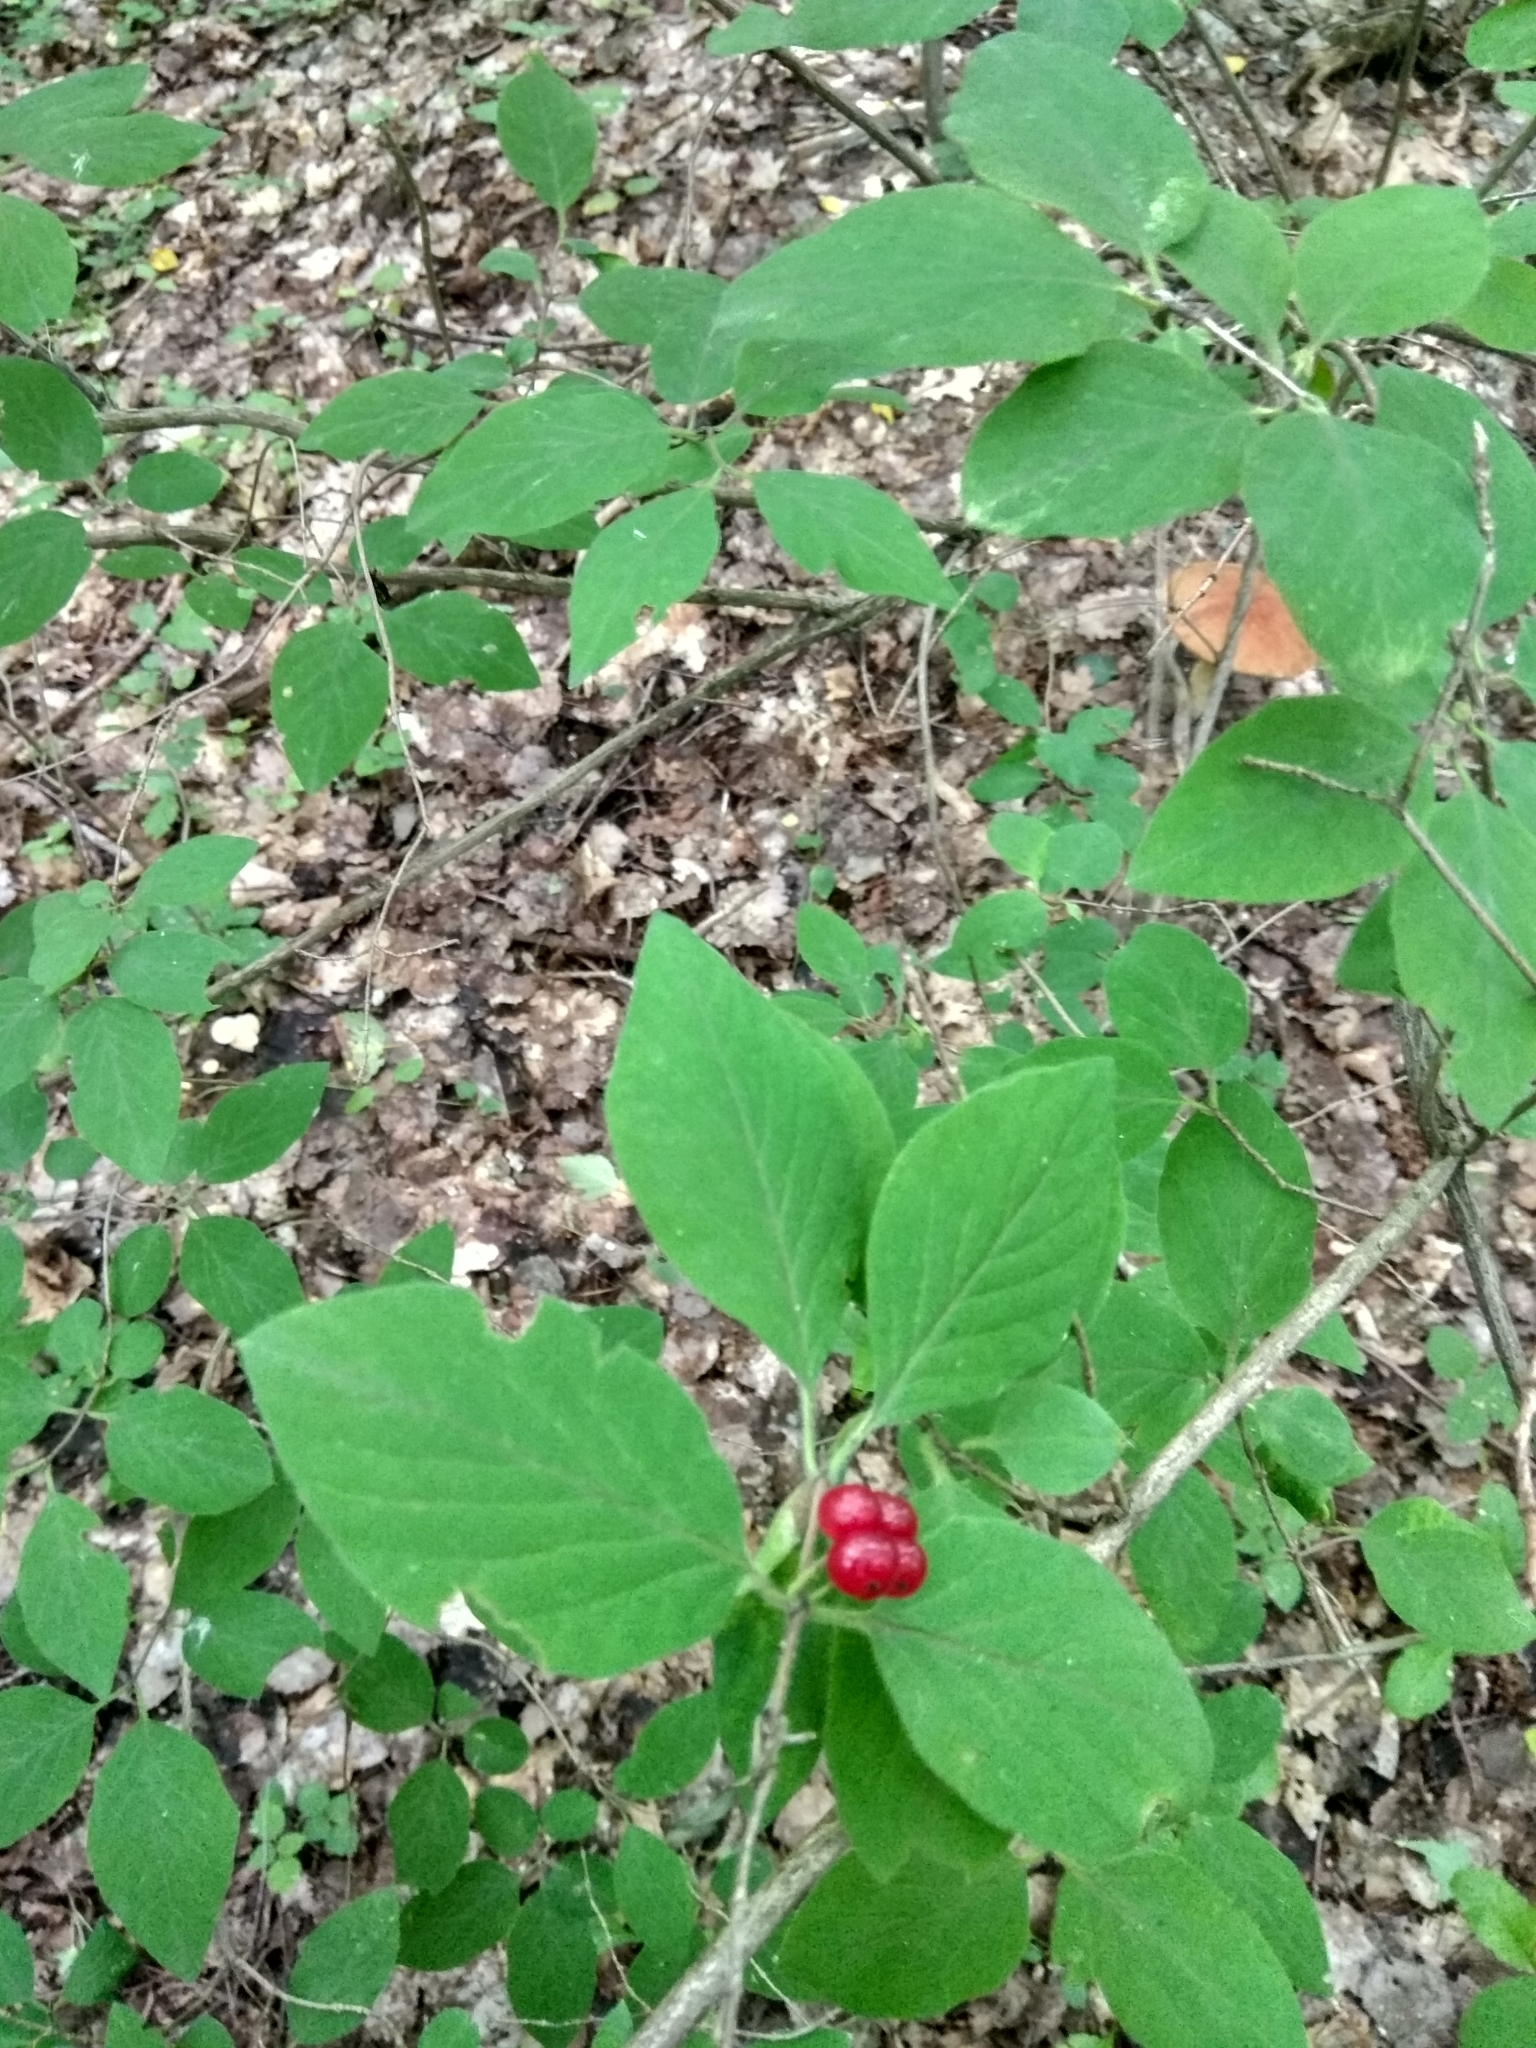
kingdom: Plantae
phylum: Tracheophyta
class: Magnoliopsida
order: Dipsacales
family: Caprifoliaceae
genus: Lonicera
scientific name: Lonicera xylosteum
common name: Fly honeysuckle
